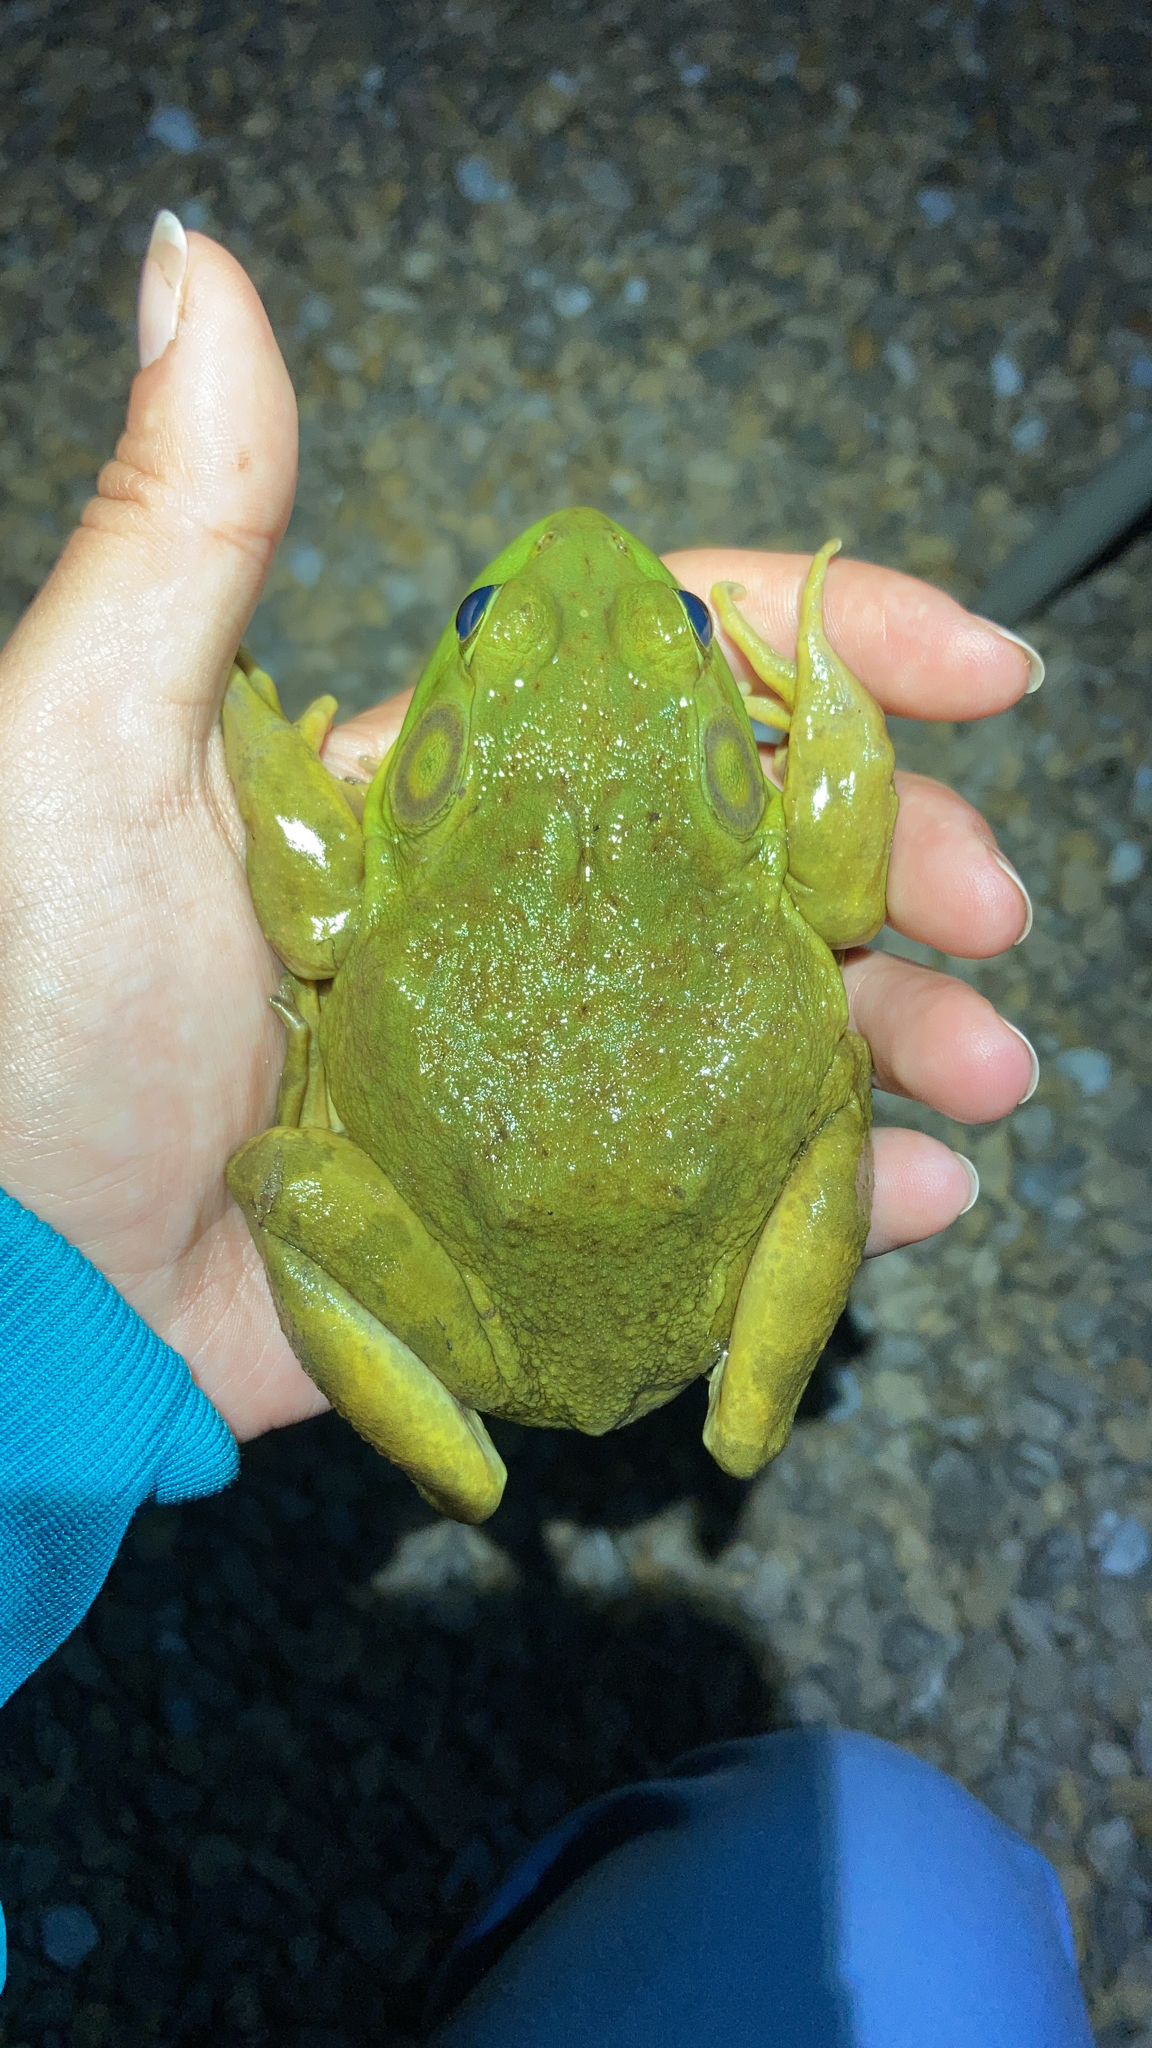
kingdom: Animalia
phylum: Chordata
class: Amphibia
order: Anura
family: Ranidae
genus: Lithobates
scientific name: Lithobates catesbeianus
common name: American bullfrog
